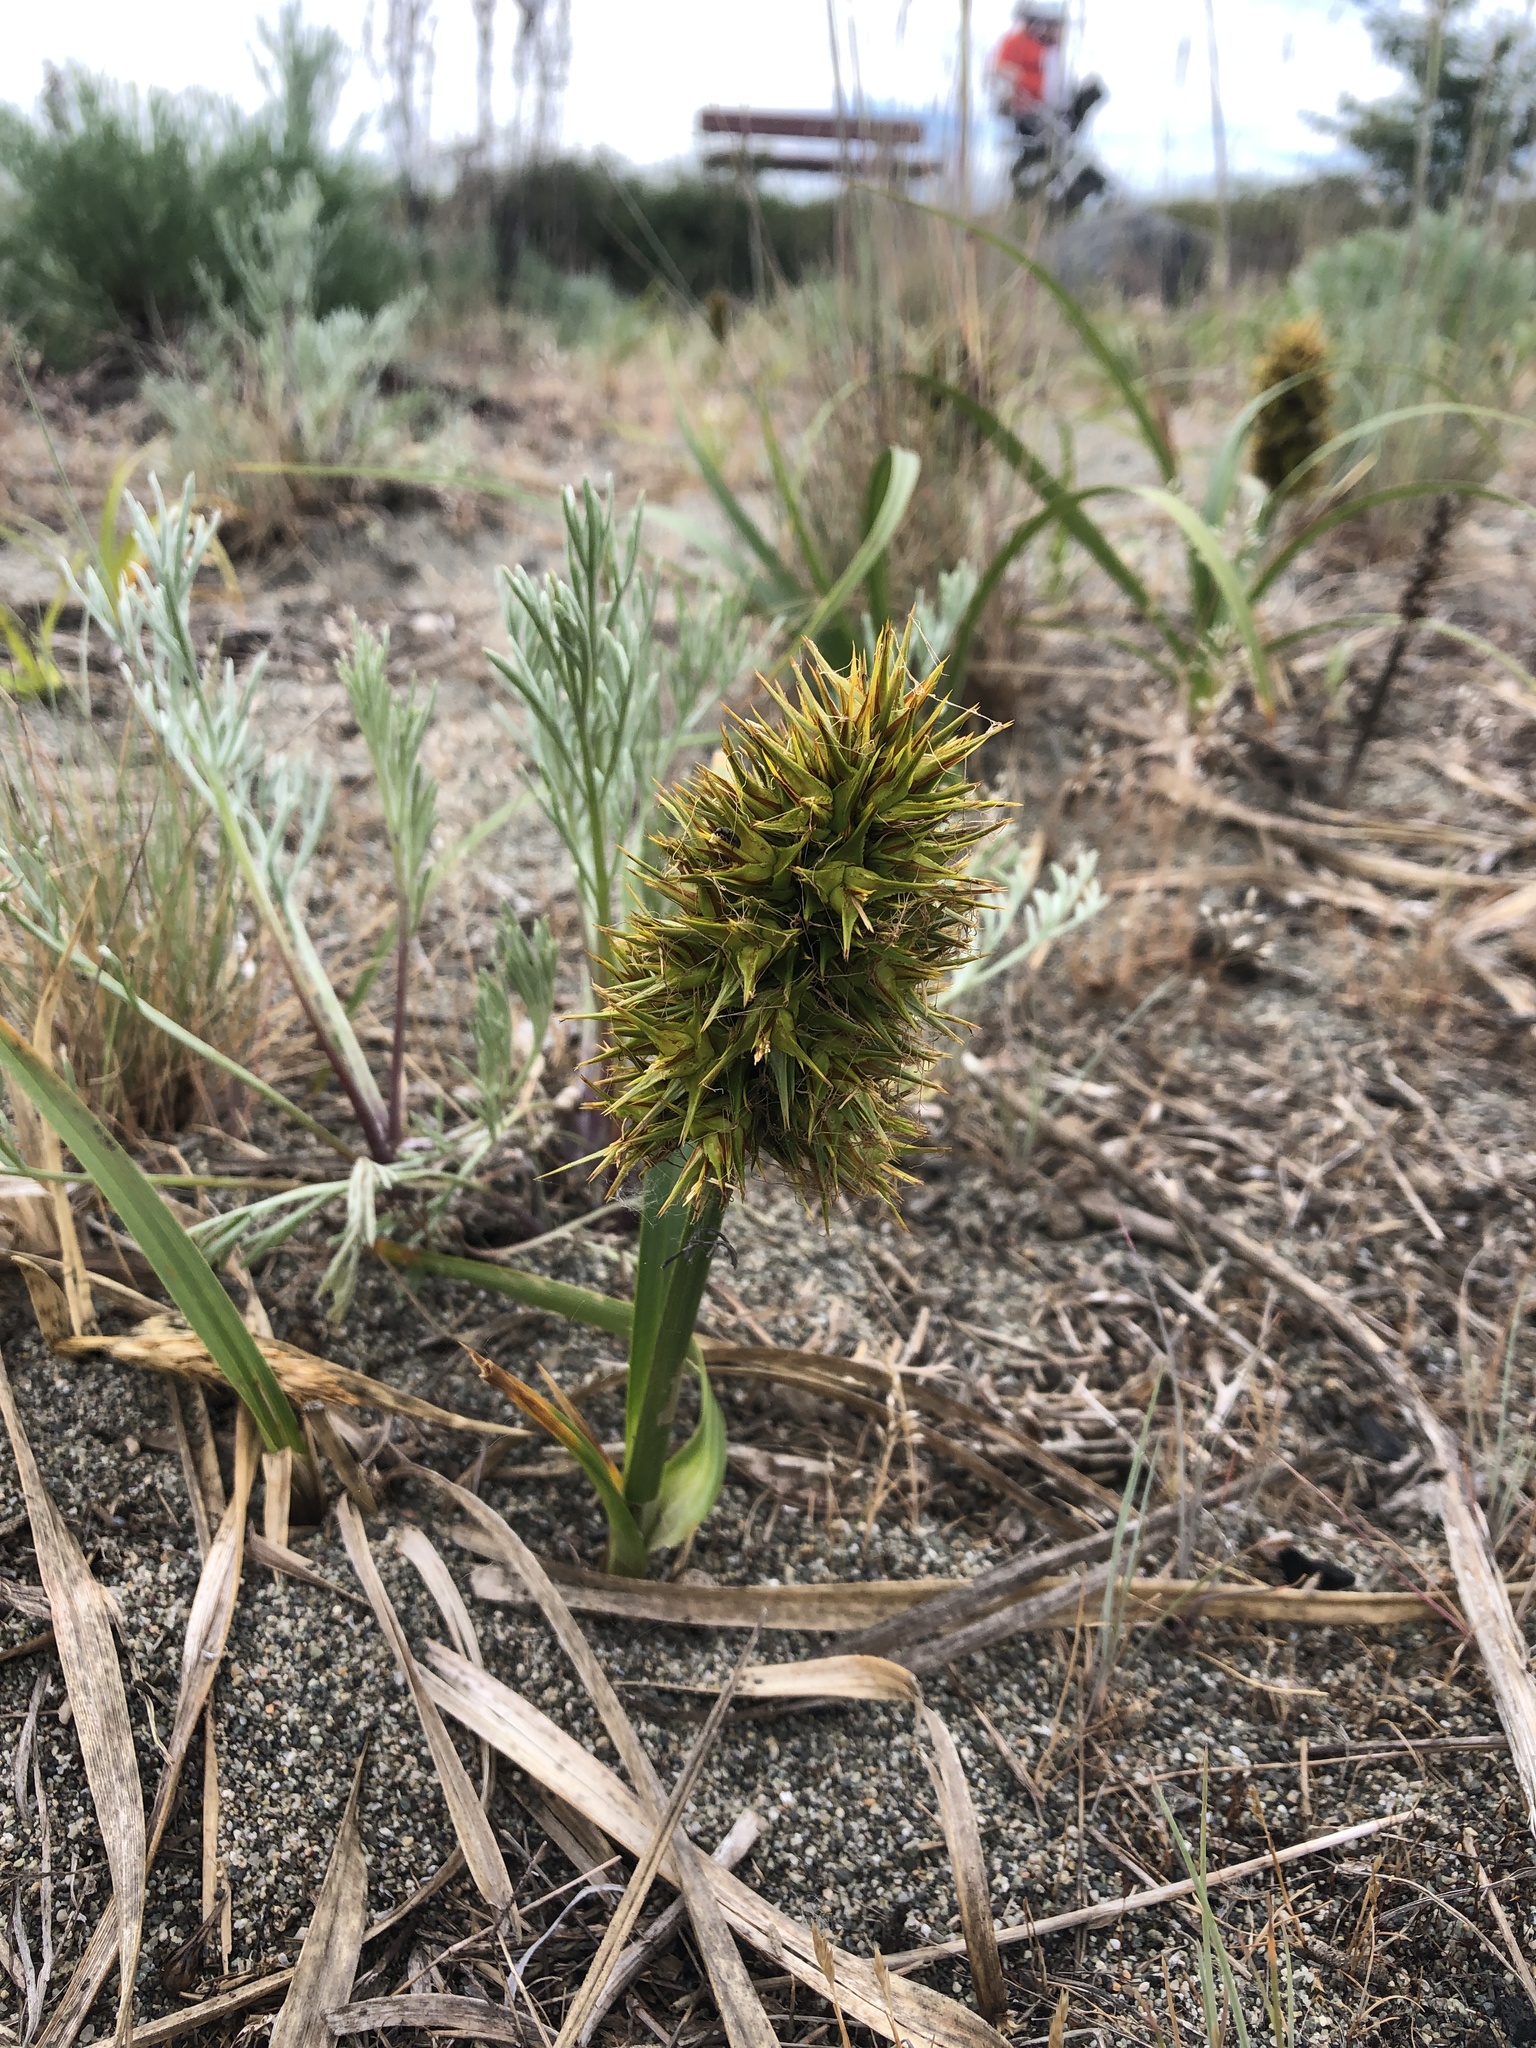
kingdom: Plantae
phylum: Tracheophyta
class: Liliopsida
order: Poales
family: Cyperaceae
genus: Carex
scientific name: Carex macrocephala
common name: Large-head sedge
